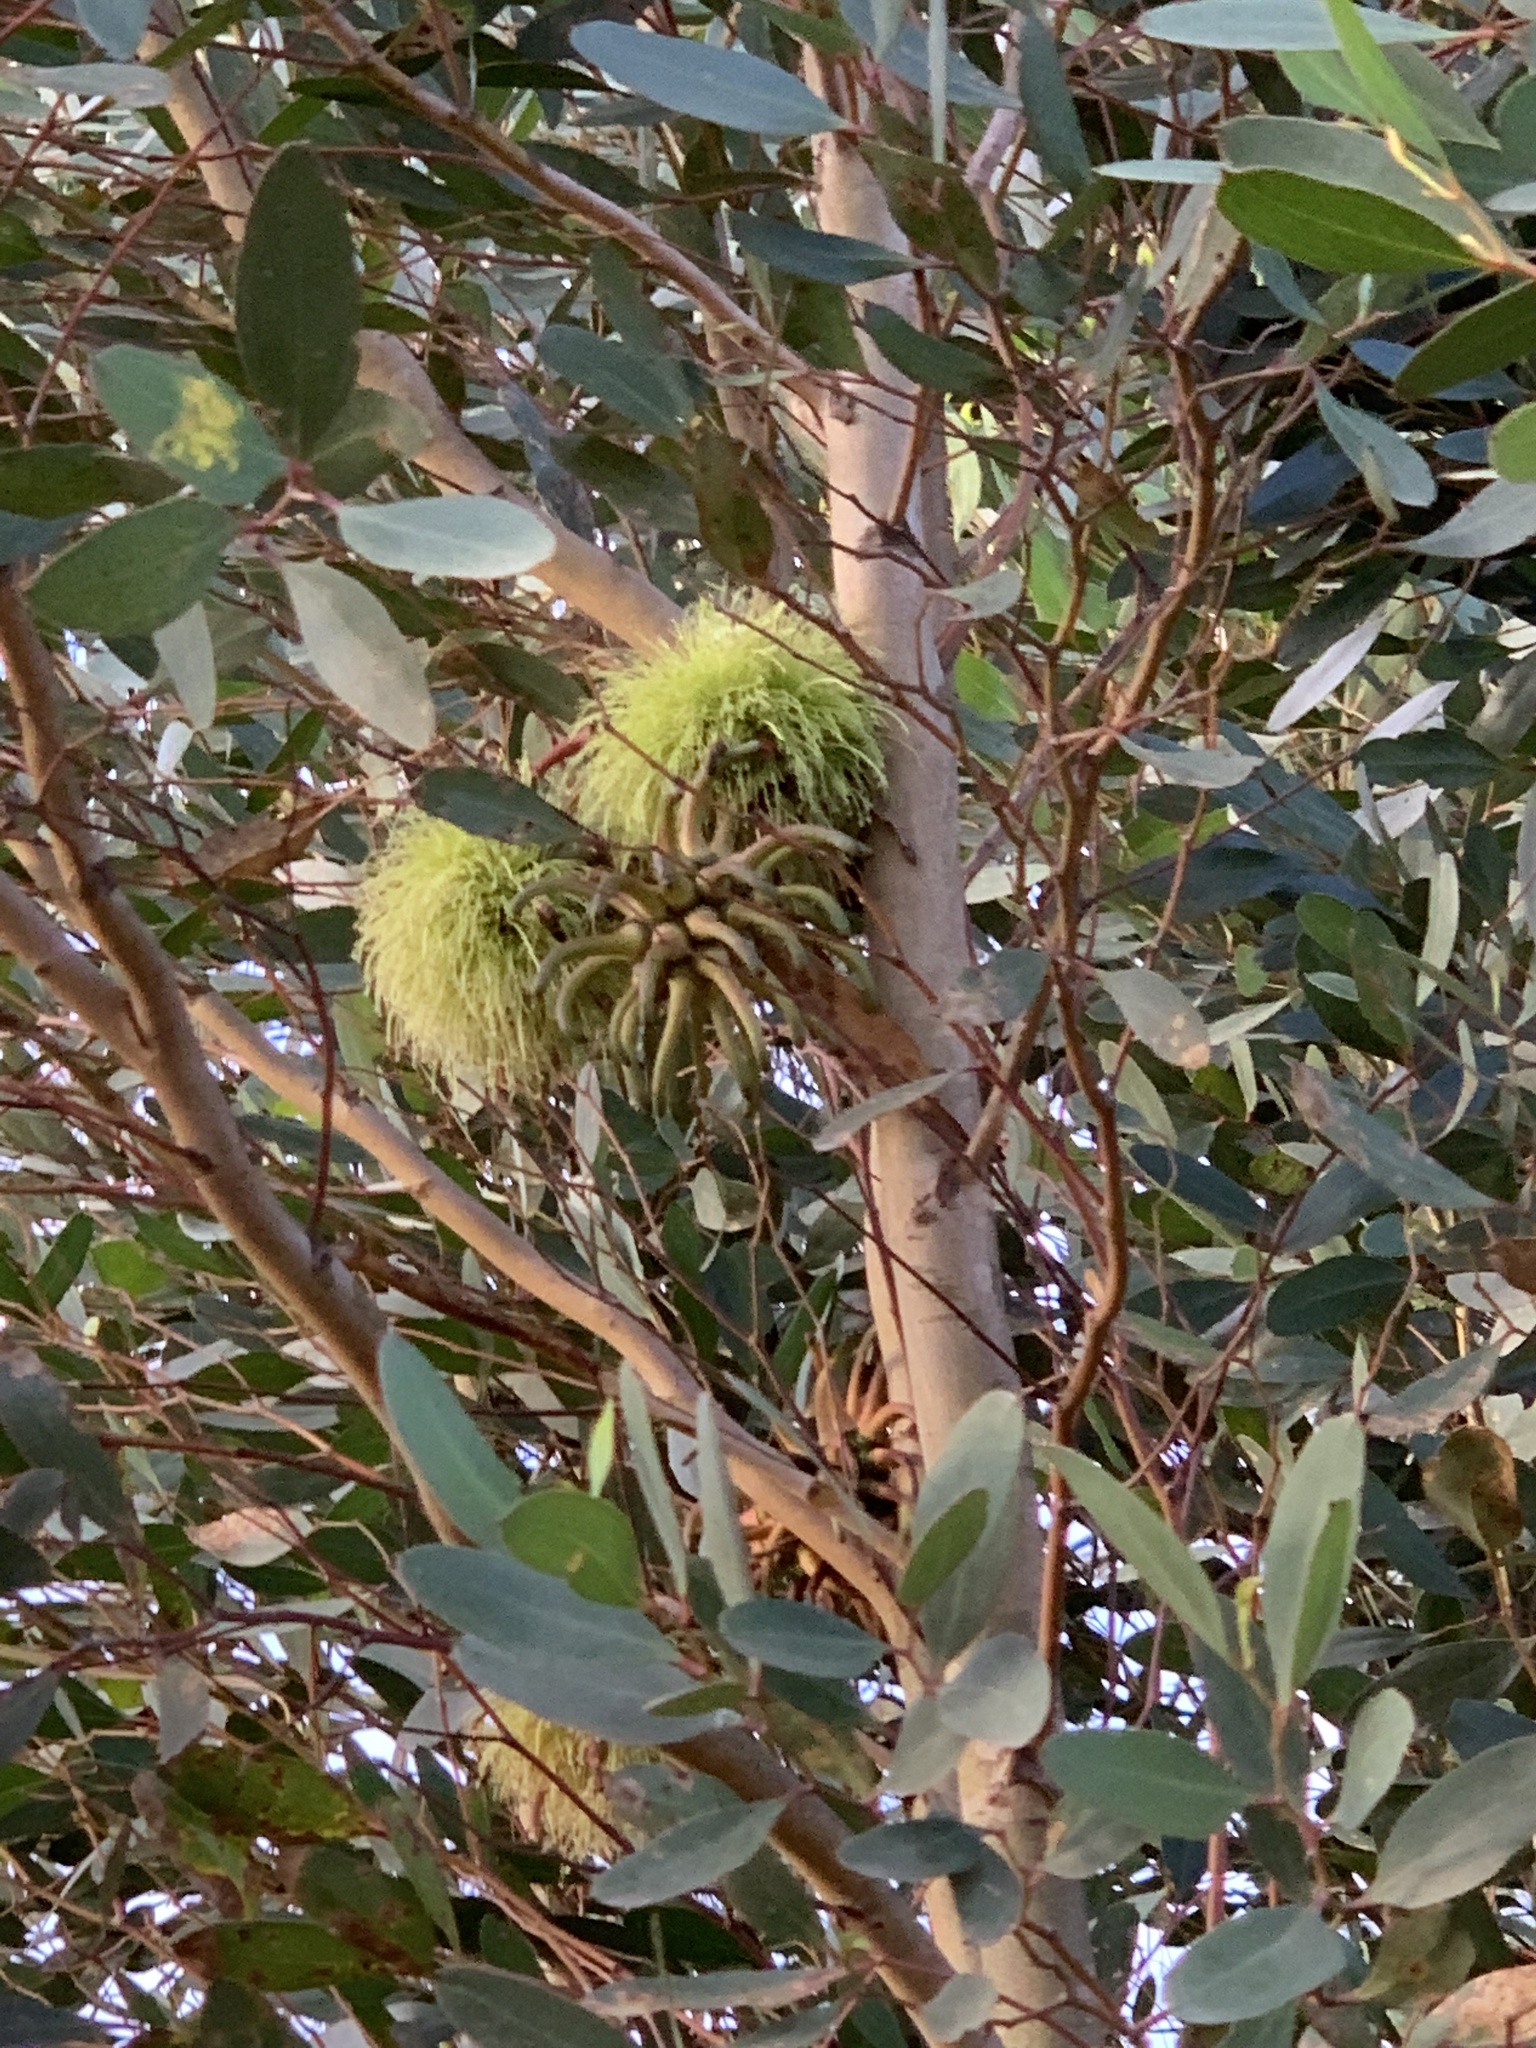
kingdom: Plantae
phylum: Tracheophyta
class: Magnoliopsida
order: Myrtales
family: Myrtaceae
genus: Eucalyptus
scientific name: Eucalyptus conferruminata
